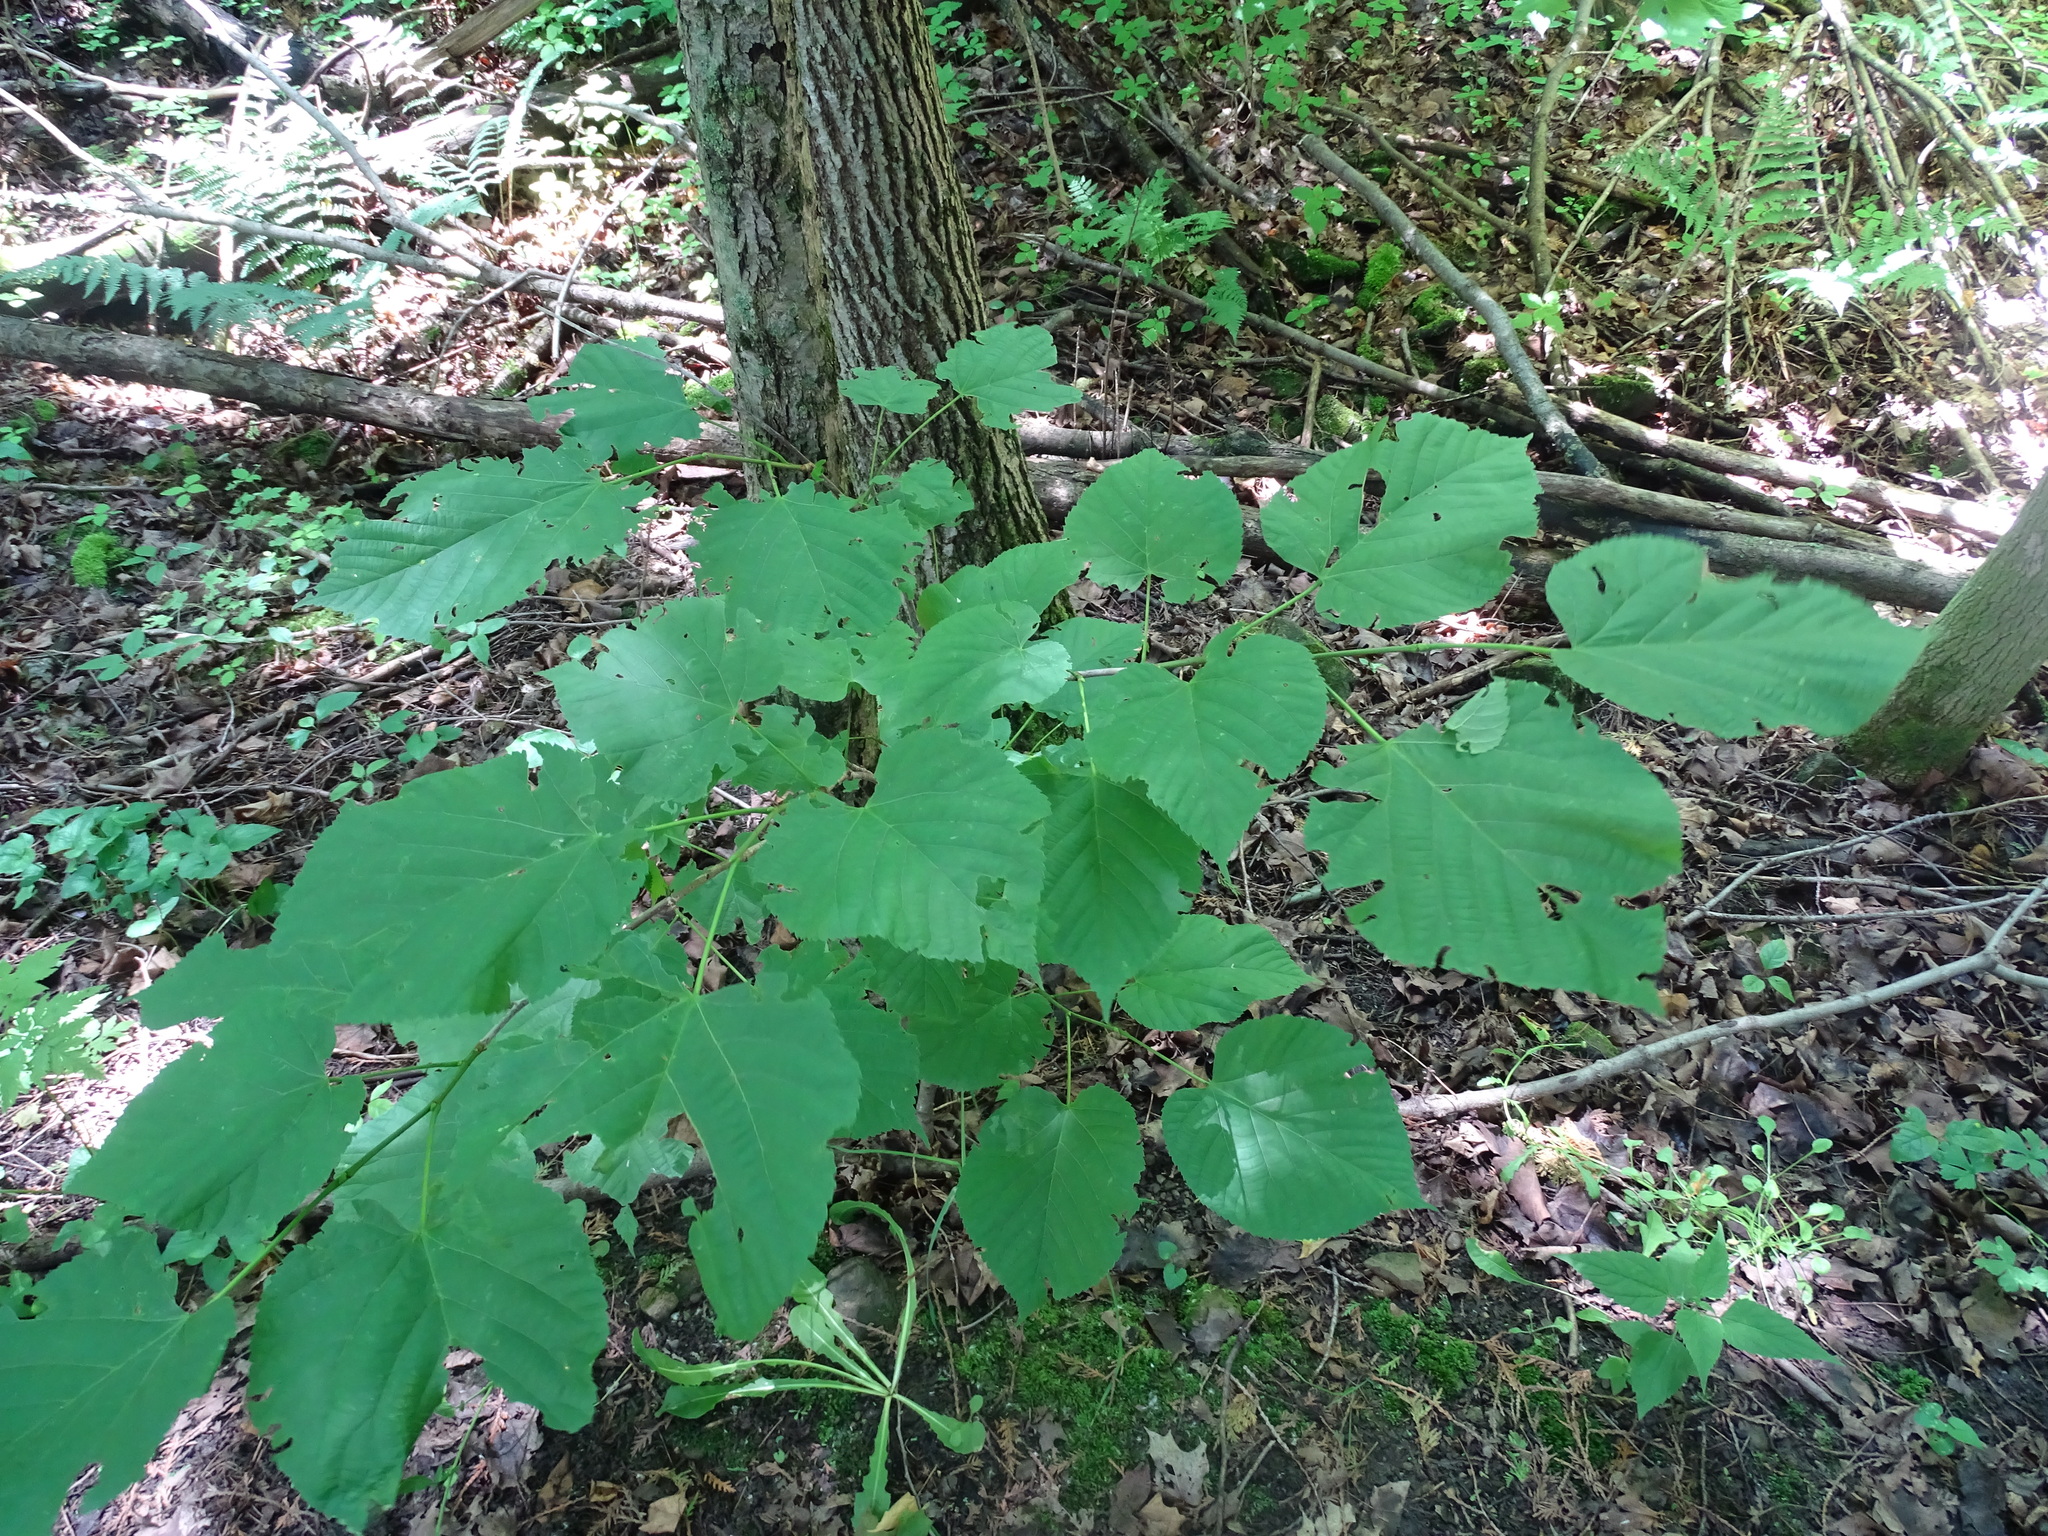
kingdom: Plantae
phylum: Tracheophyta
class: Magnoliopsida
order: Malvales
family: Malvaceae
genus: Tilia
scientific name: Tilia americana
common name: Basswood
